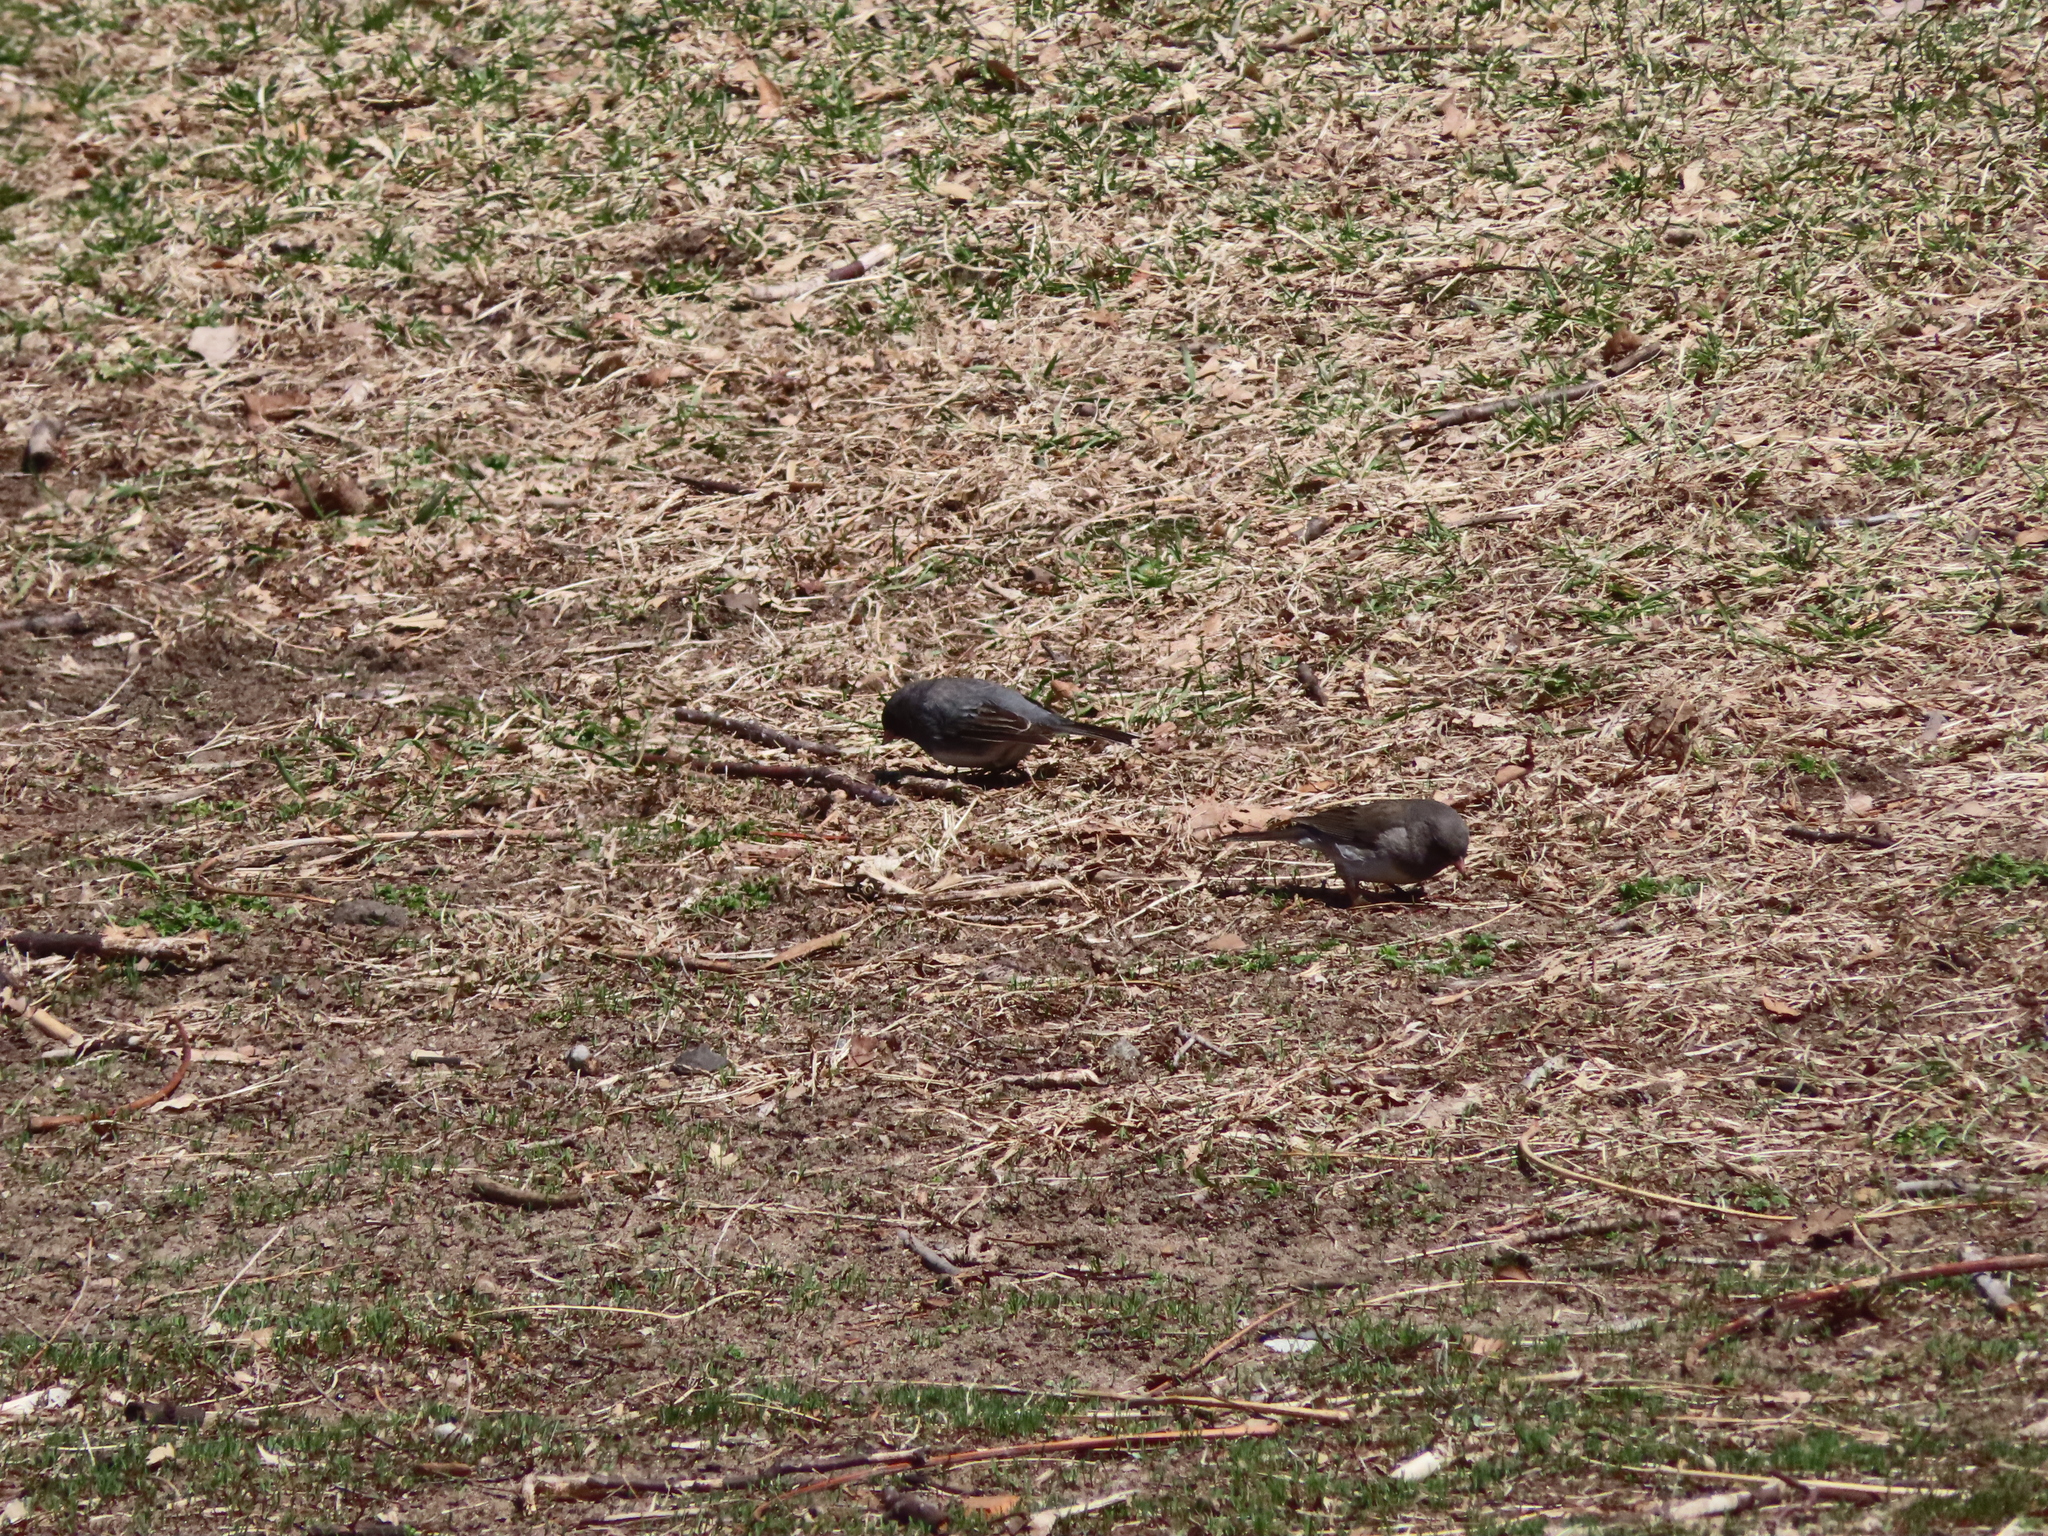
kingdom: Animalia
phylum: Chordata
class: Aves
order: Passeriformes
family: Passerellidae
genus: Junco
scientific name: Junco hyemalis
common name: Dark-eyed junco
